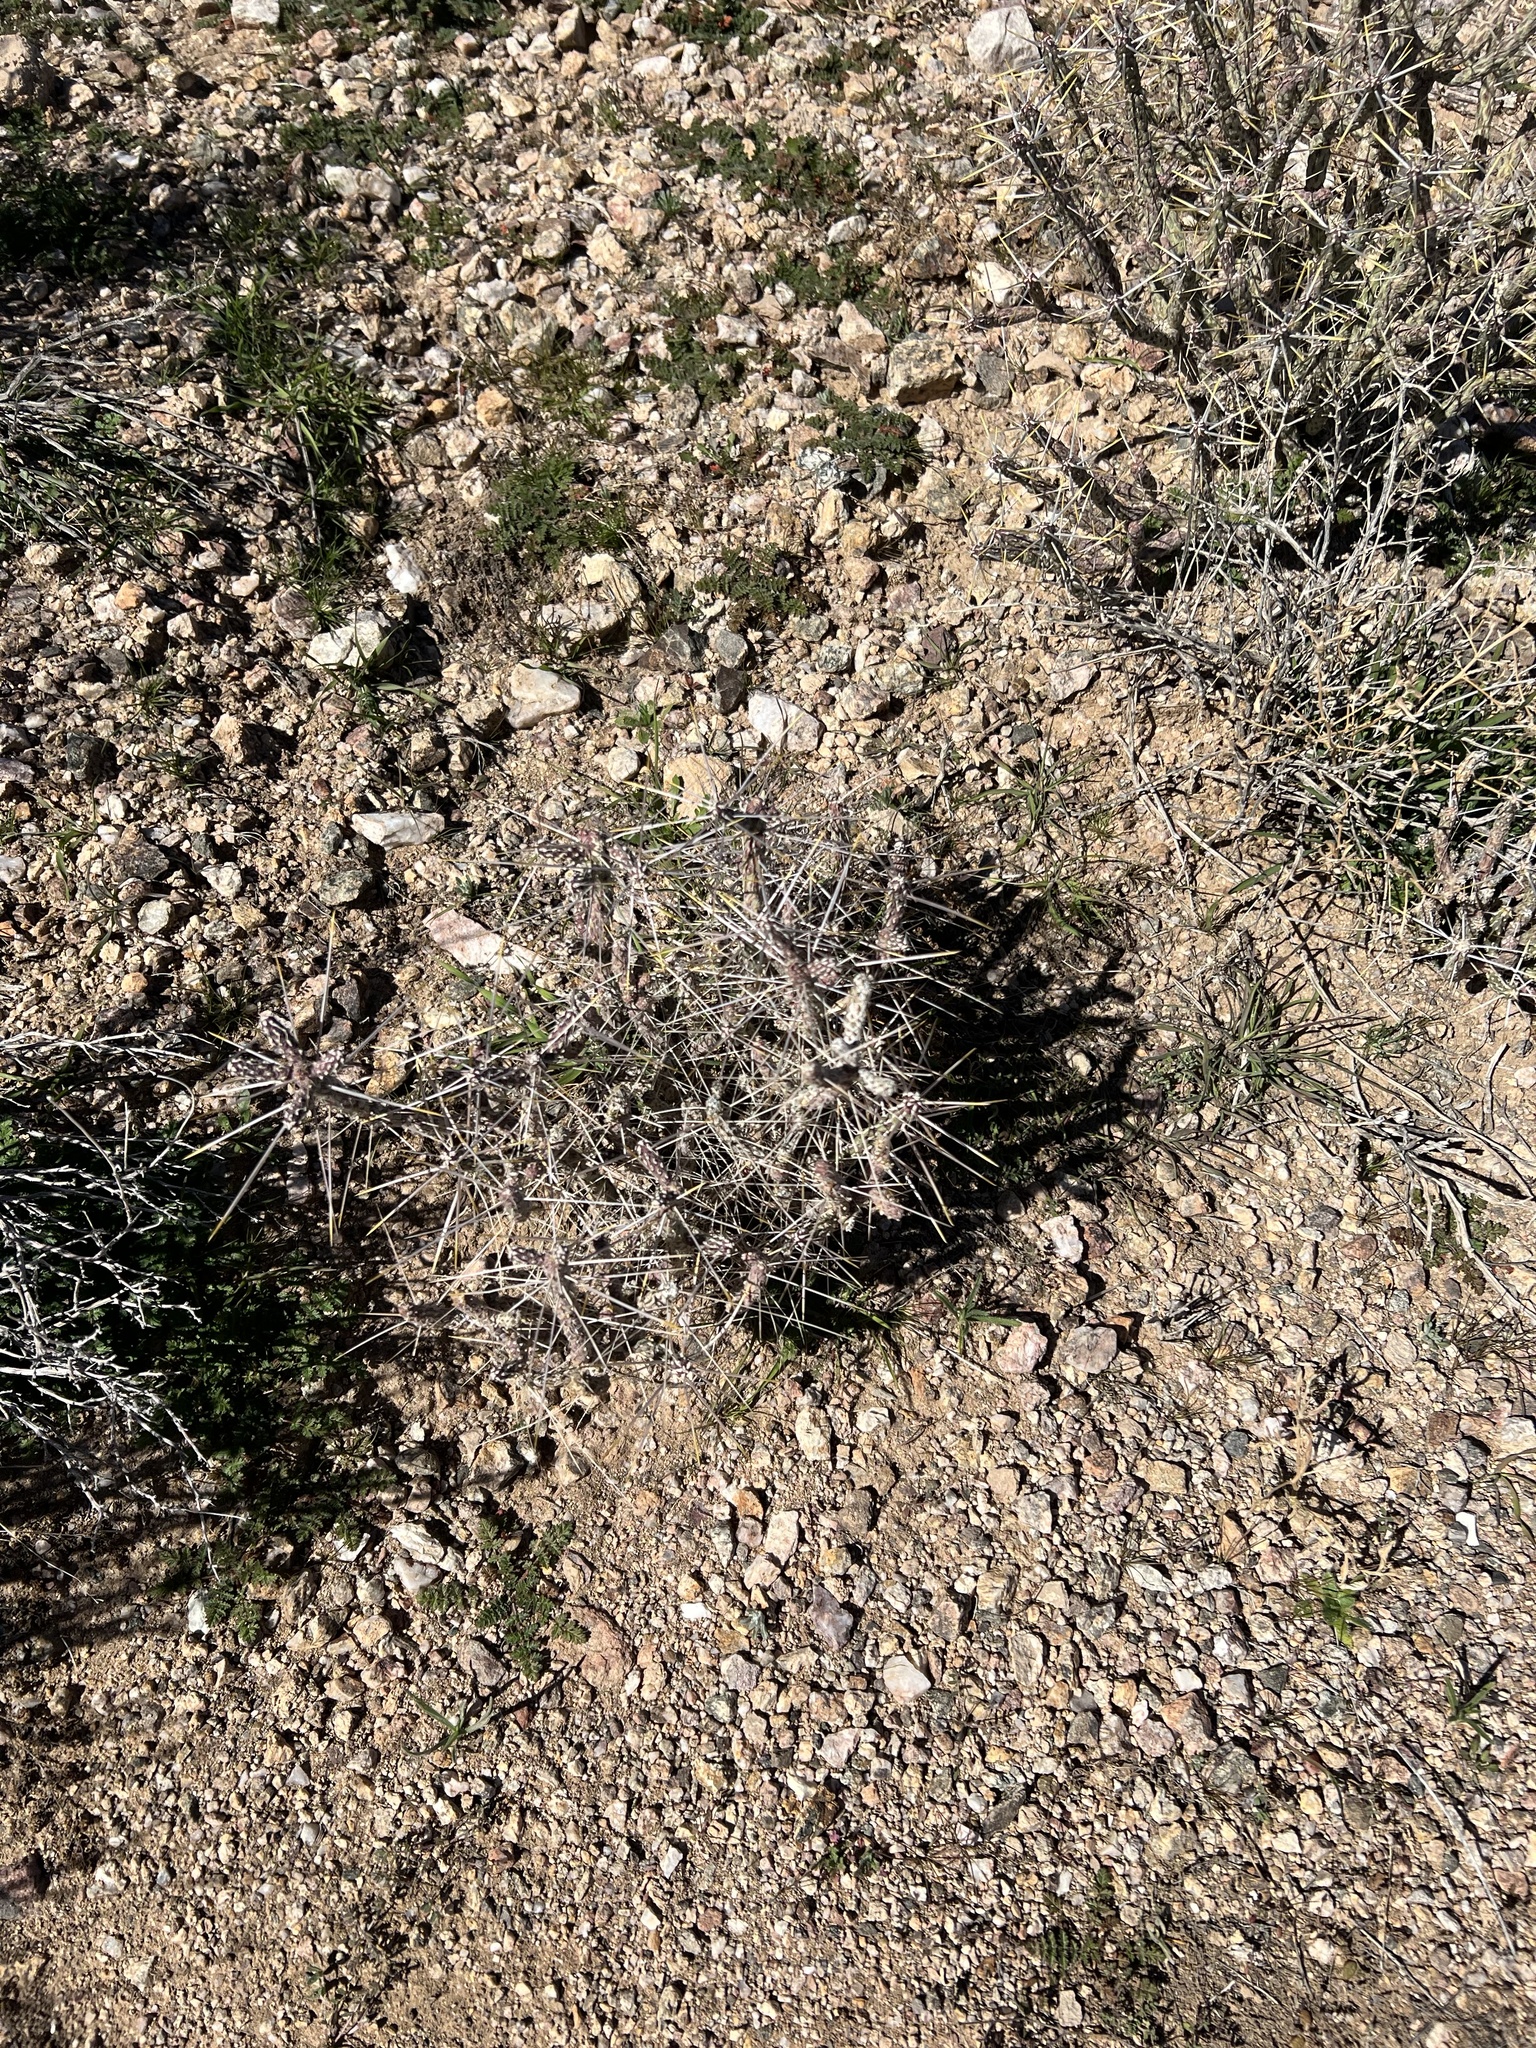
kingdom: Plantae
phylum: Tracheophyta
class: Magnoliopsida
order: Caryophyllales
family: Cactaceae
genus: Cylindropuntia
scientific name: Cylindropuntia ramosissima
